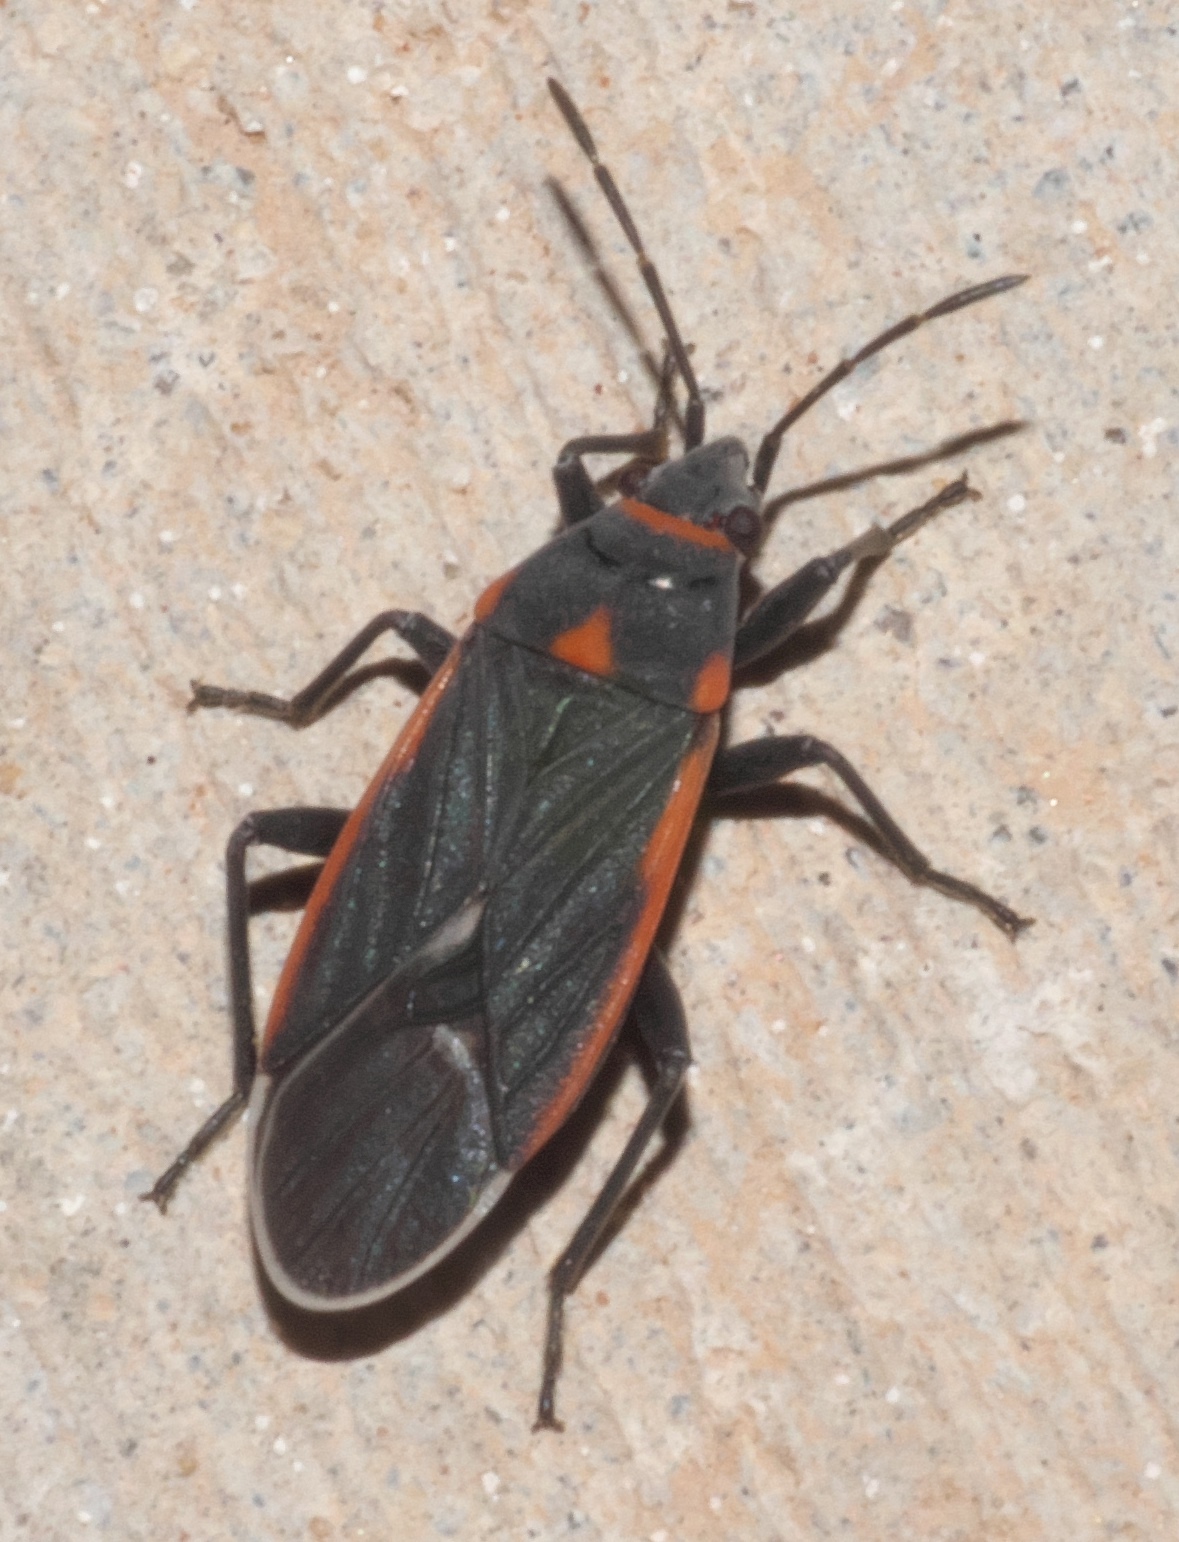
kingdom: Animalia
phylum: Arthropoda
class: Insecta
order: Hemiptera
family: Lygaeidae
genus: Melacoryphus
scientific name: Melacoryphus lateralis
